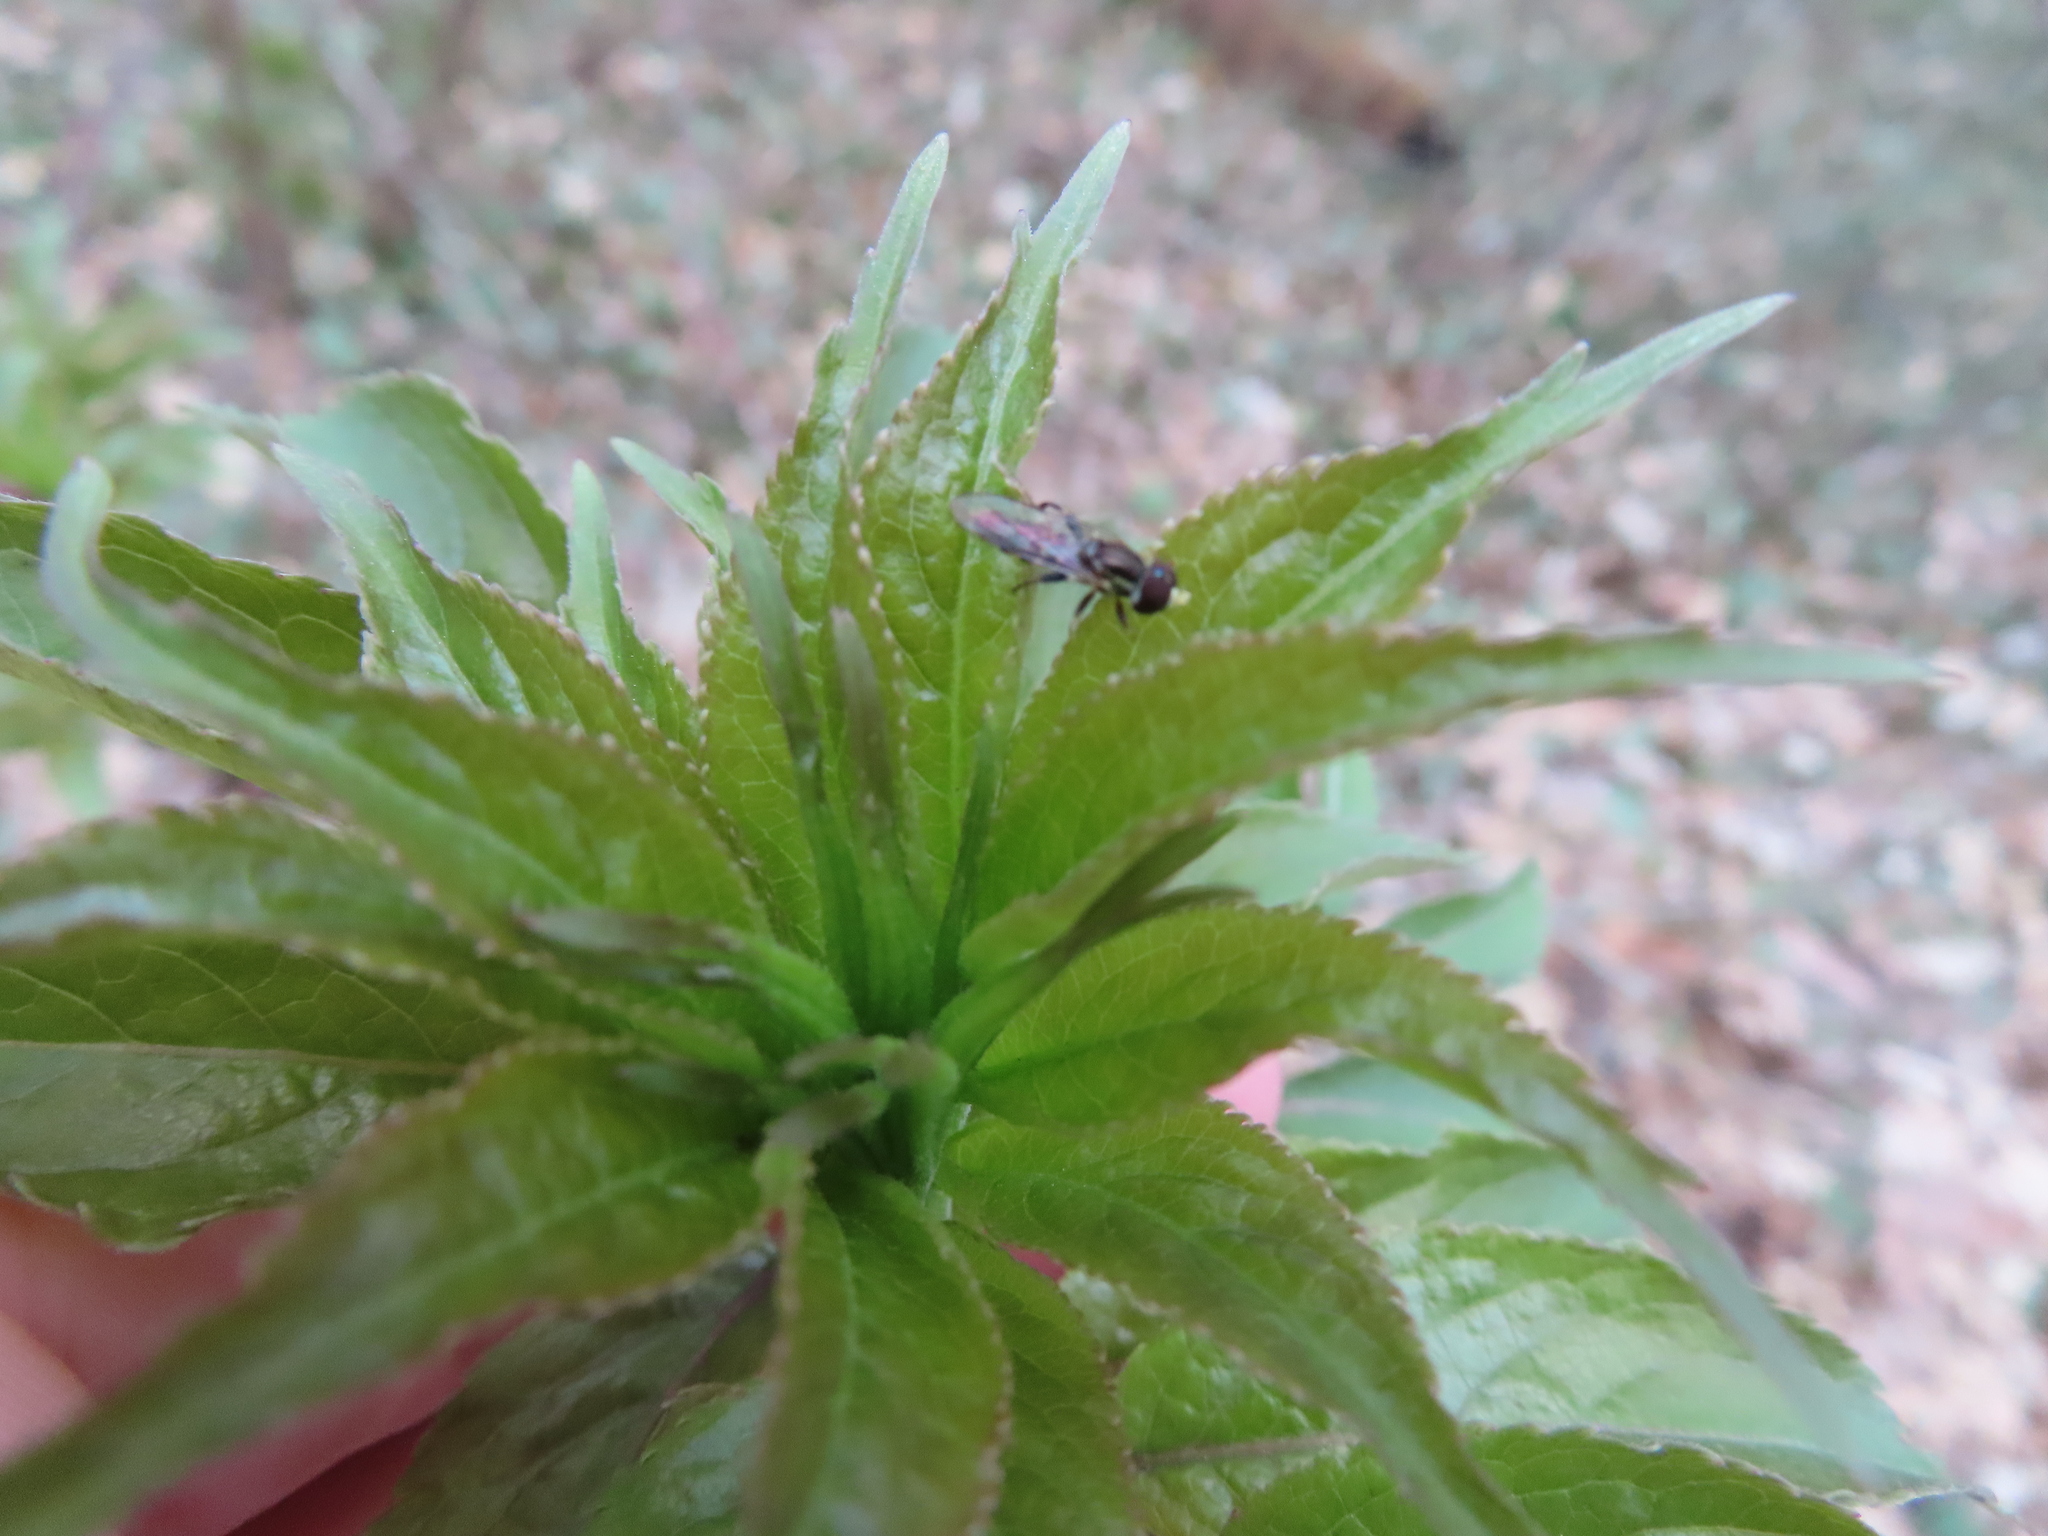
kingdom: Animalia
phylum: Arthropoda
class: Insecta
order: Diptera
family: Syrphidae
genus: Toxomerus
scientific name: Toxomerus geminatus
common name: Eastern calligrapher
